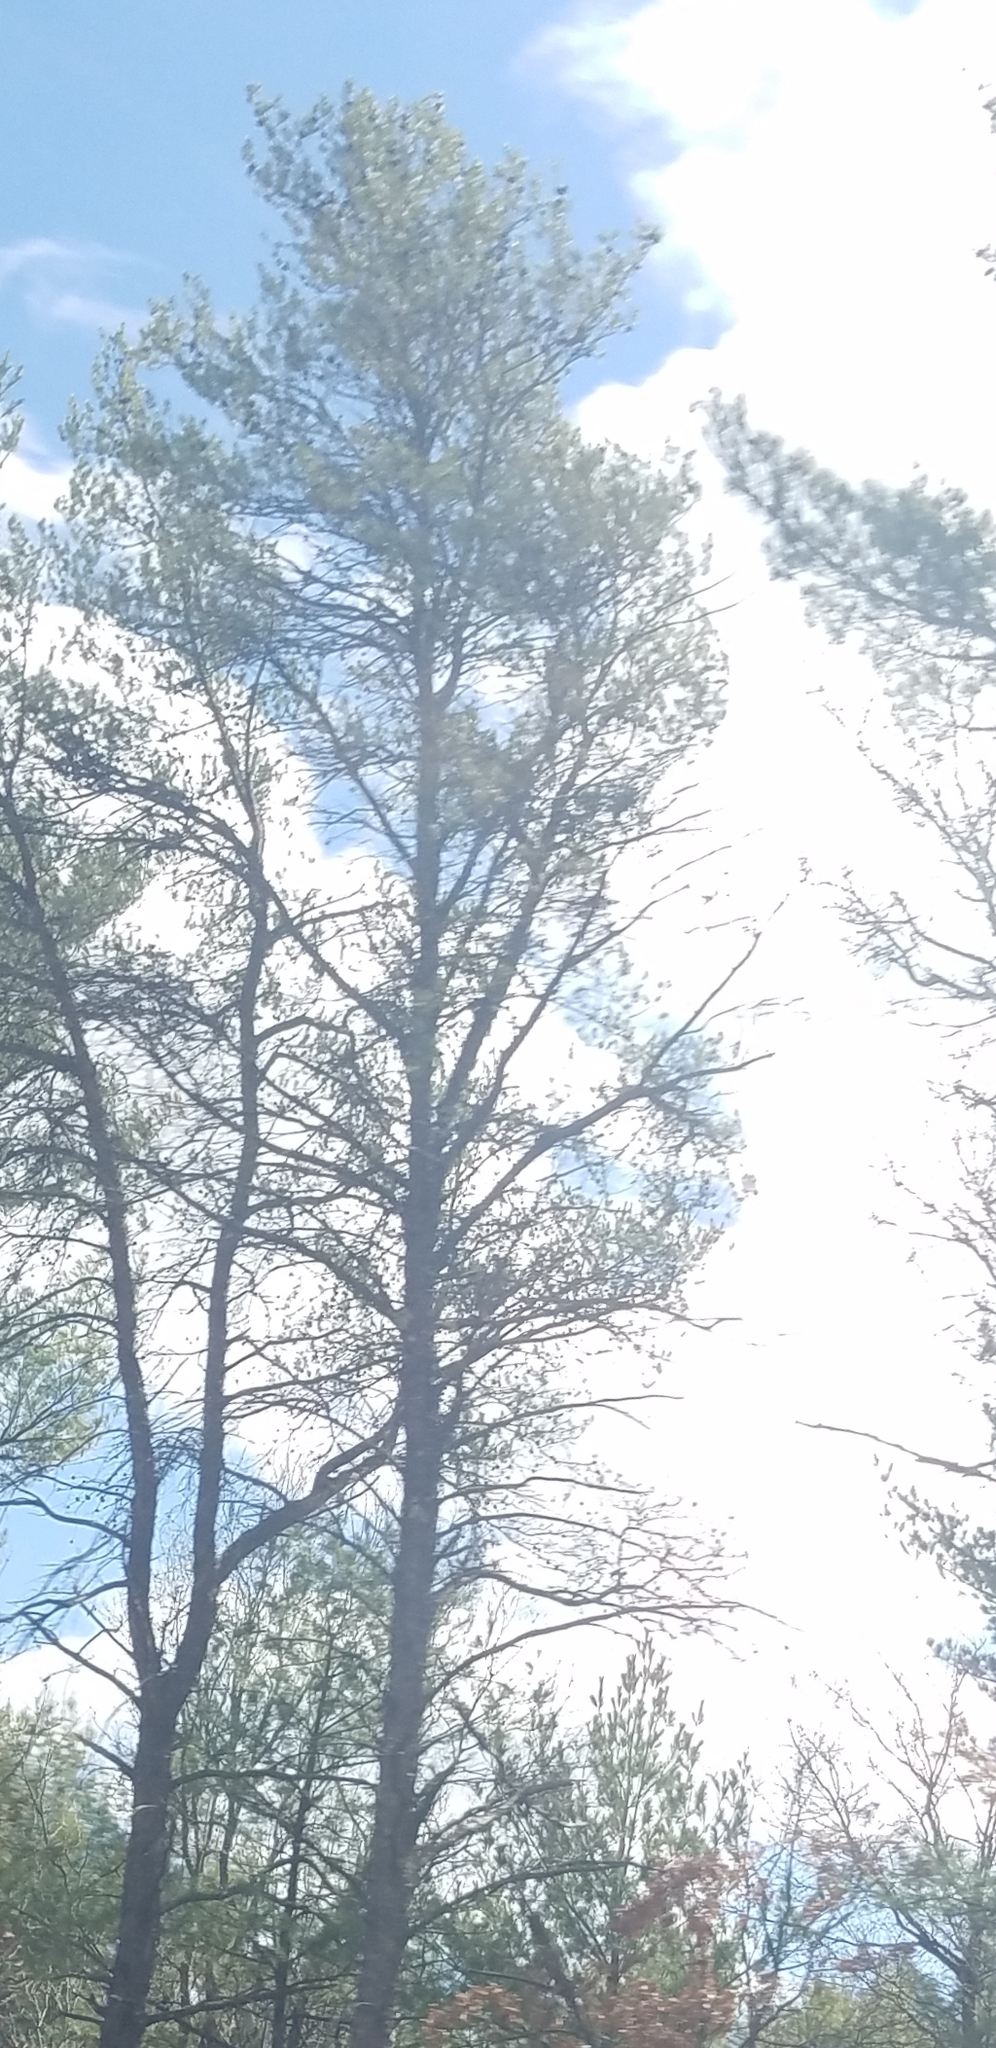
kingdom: Plantae
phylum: Tracheophyta
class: Pinopsida
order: Pinales
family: Pinaceae
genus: Pinus
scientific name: Pinus strobus
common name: Weymouth pine
